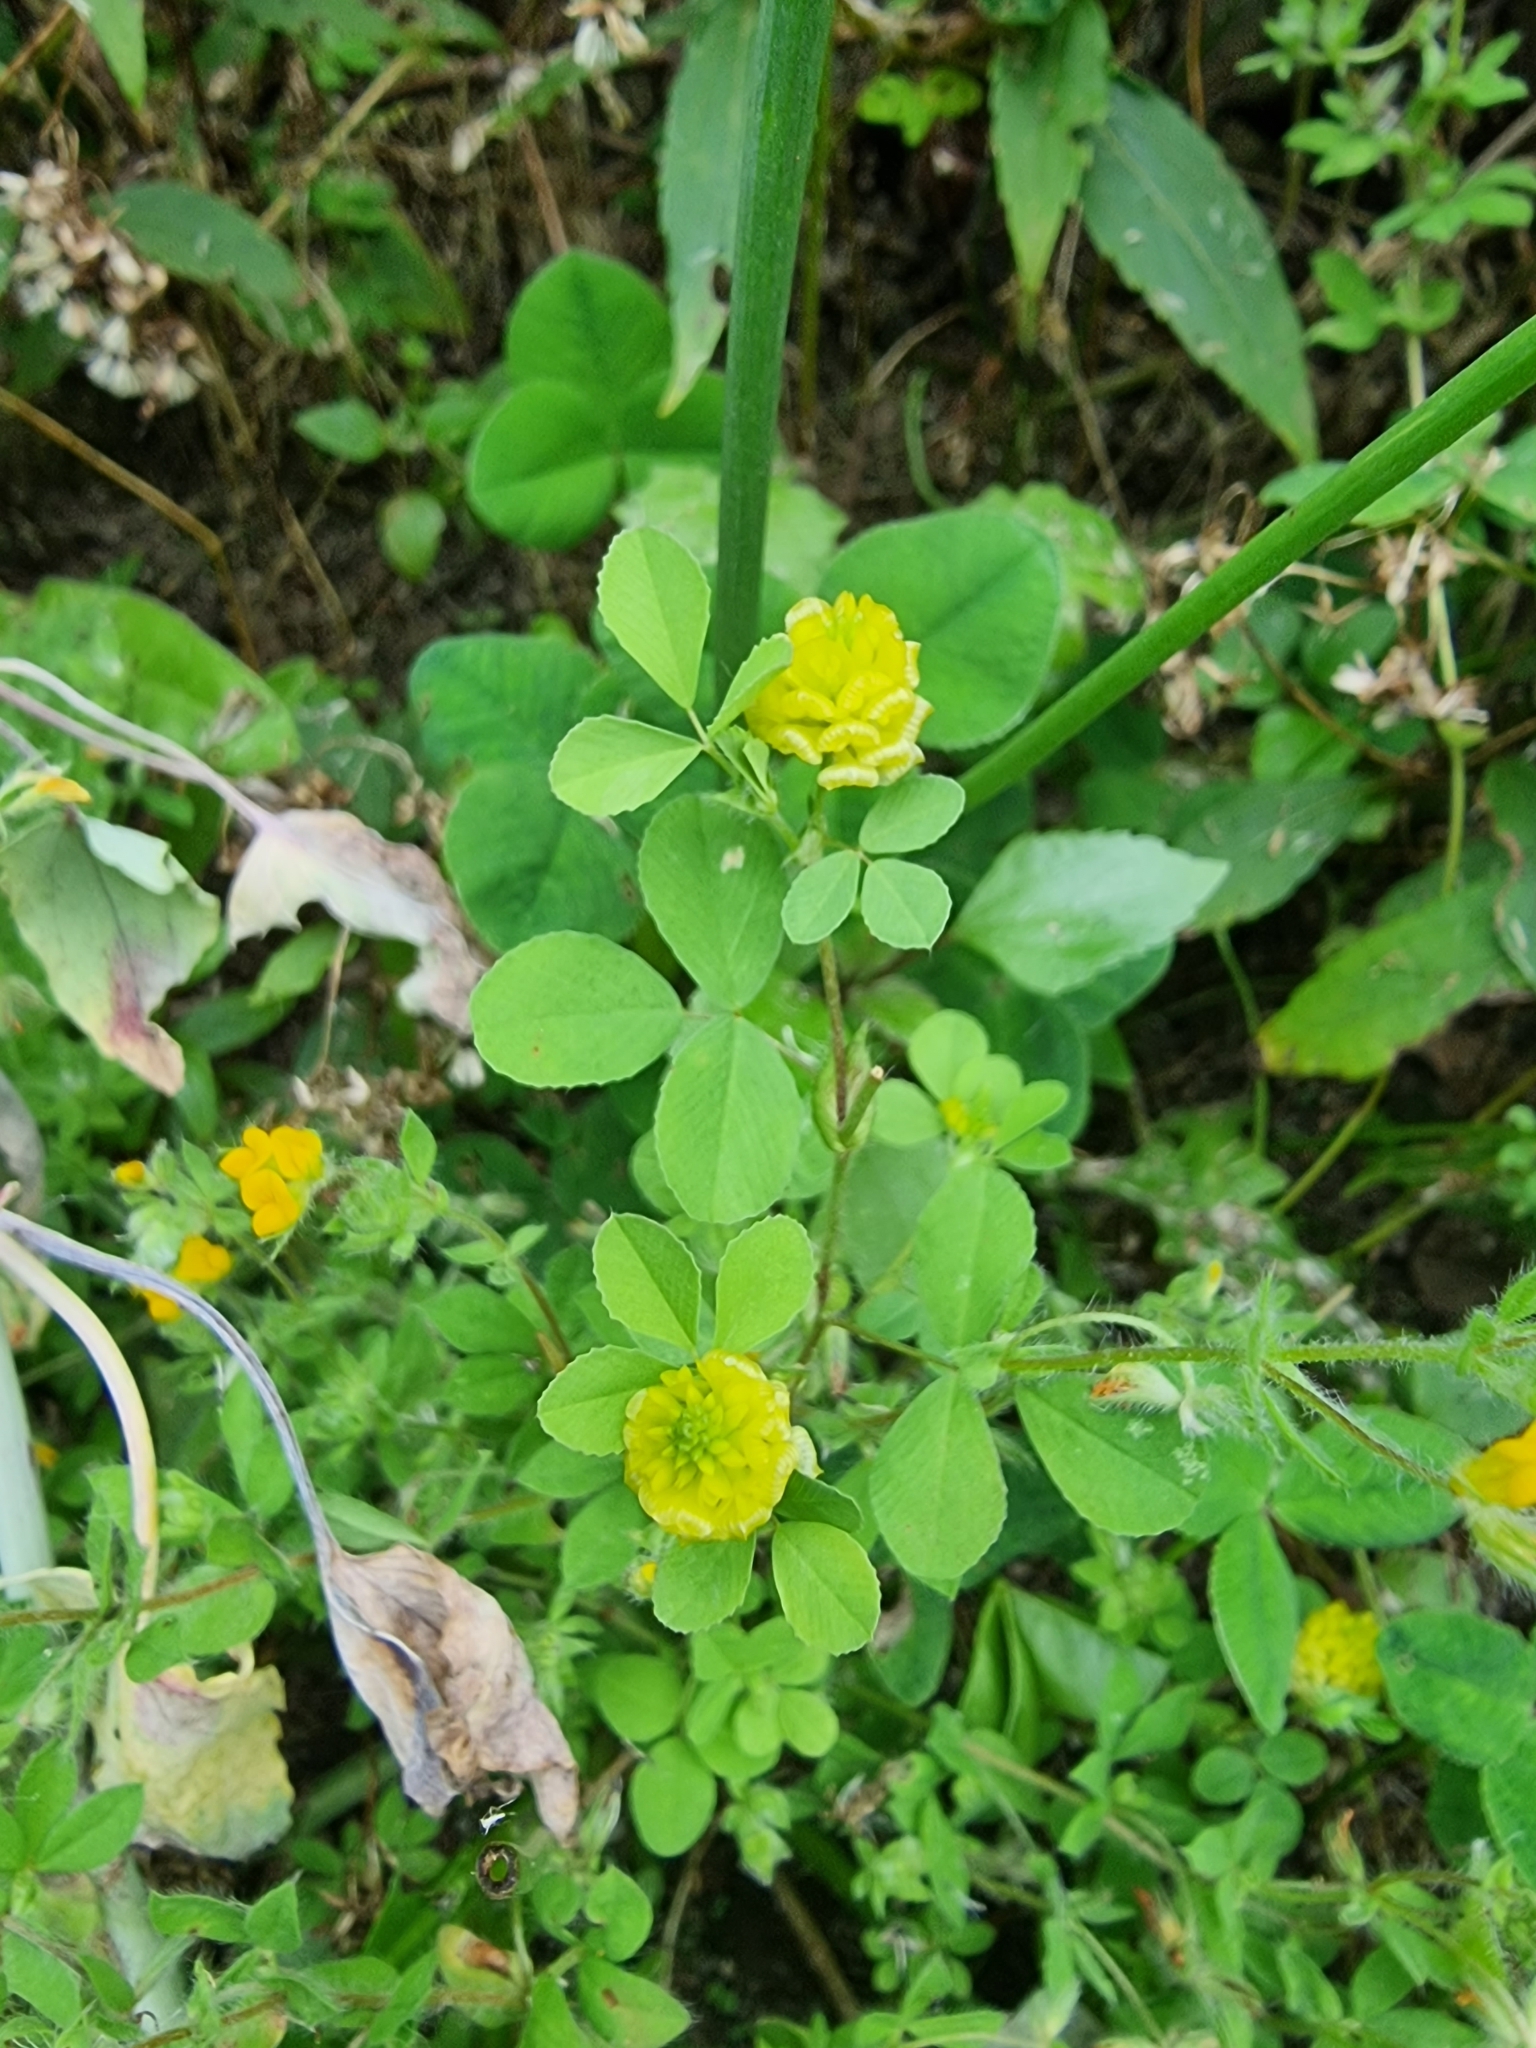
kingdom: Plantae
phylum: Tracheophyta
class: Magnoliopsida
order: Fabales
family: Fabaceae
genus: Trifolium
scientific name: Trifolium campestre
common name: Field clover
